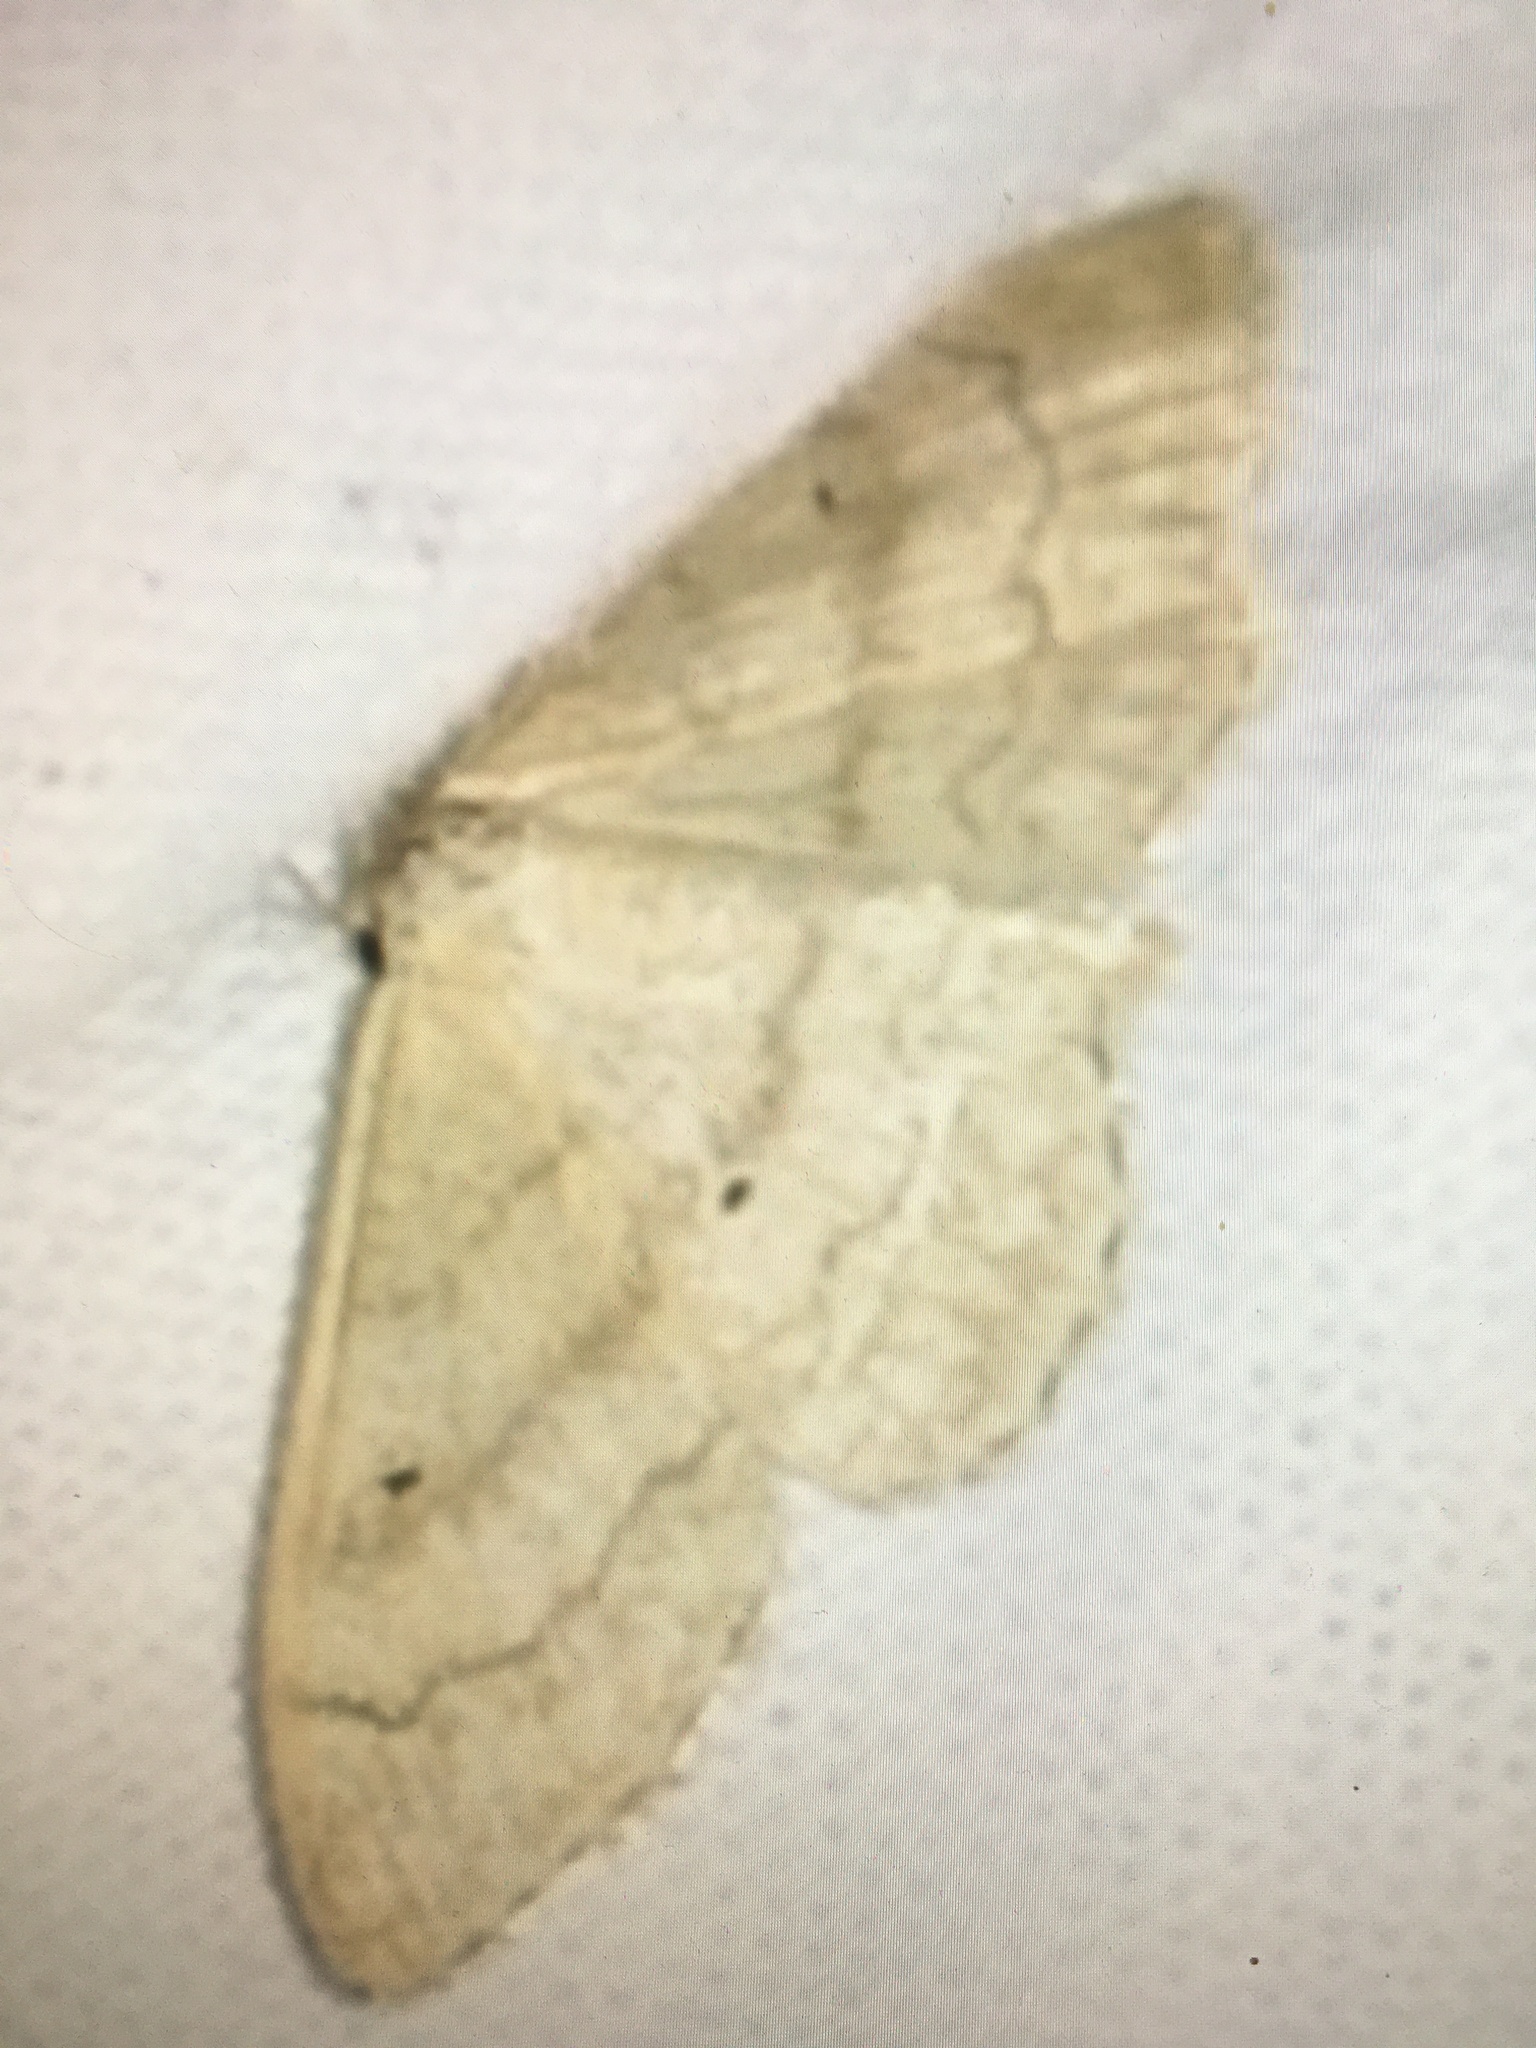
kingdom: Animalia
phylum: Arthropoda
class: Insecta
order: Lepidoptera
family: Geometridae
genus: Idaea
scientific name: Idaea aversata
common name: Riband wave
